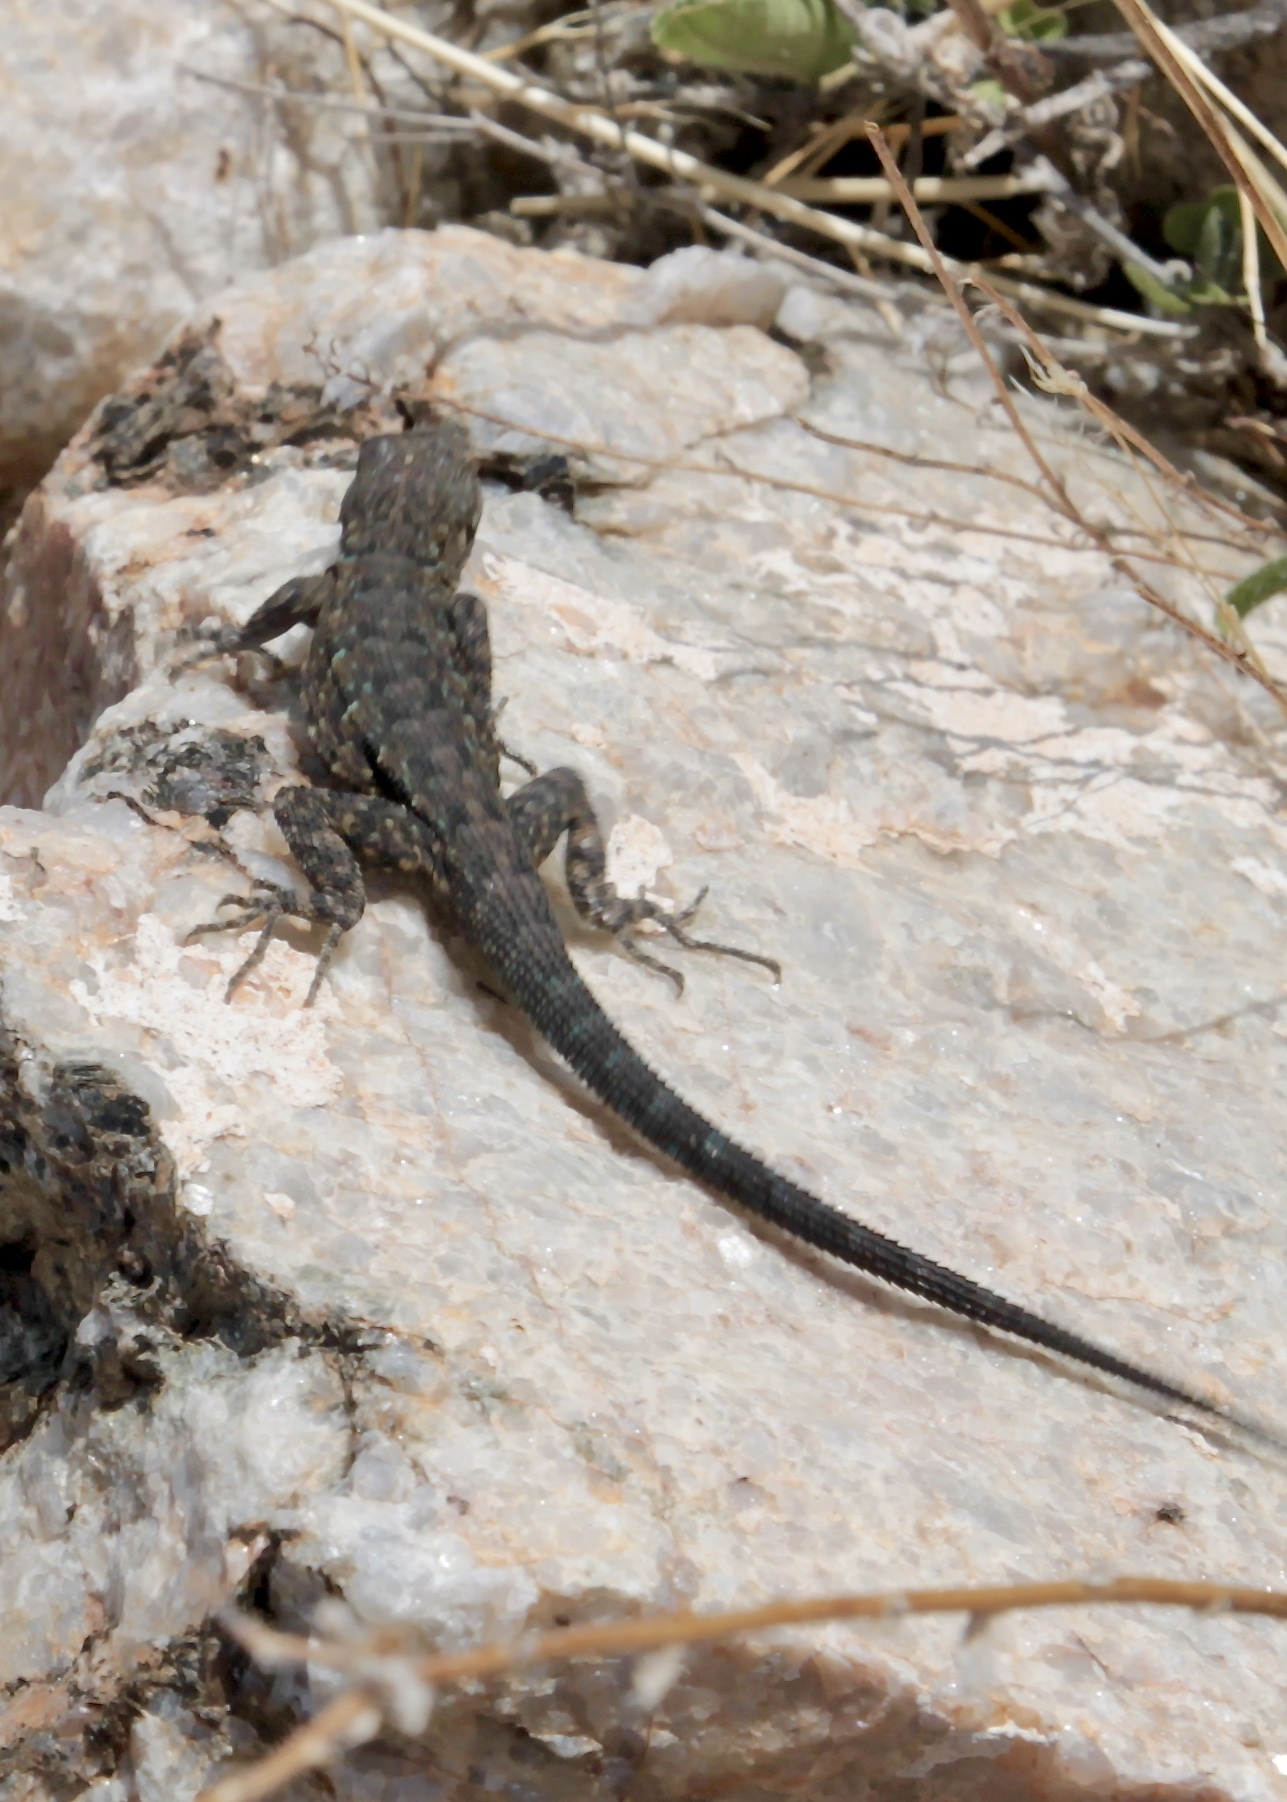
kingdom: Animalia
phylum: Chordata
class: Squamata
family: Phrynosomatidae
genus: Urosaurus
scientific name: Urosaurus ornatus
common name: Ornate tree lizard
